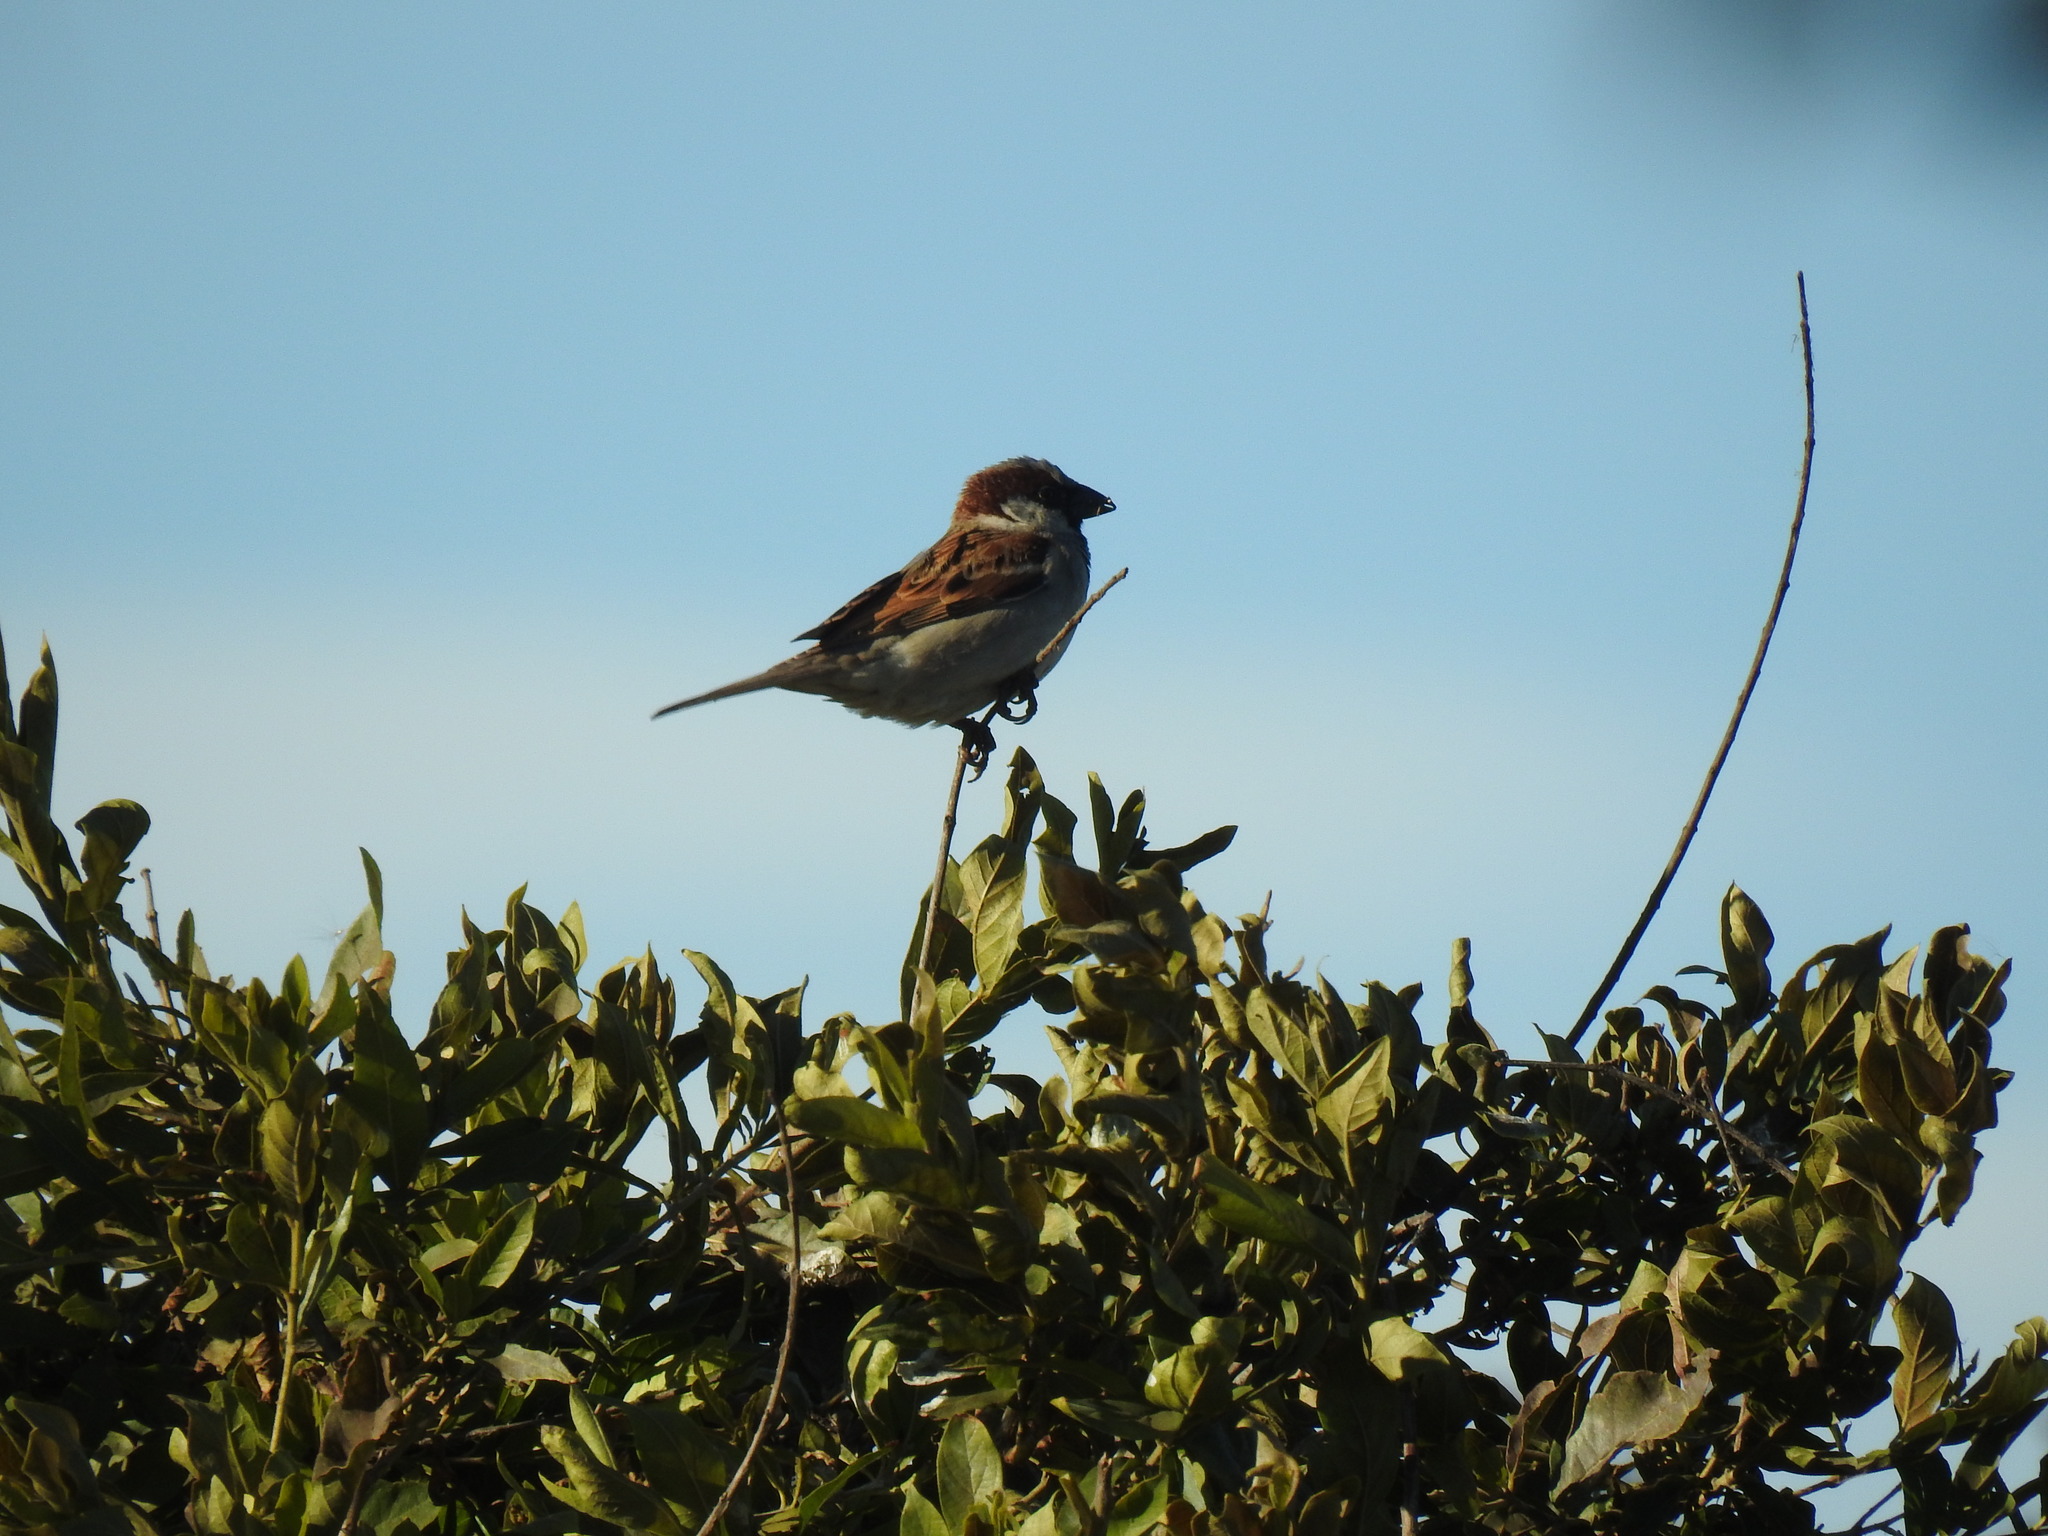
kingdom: Animalia
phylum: Chordata
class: Aves
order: Passeriformes
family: Passeridae
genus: Passer
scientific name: Passer domesticus
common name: House sparrow
